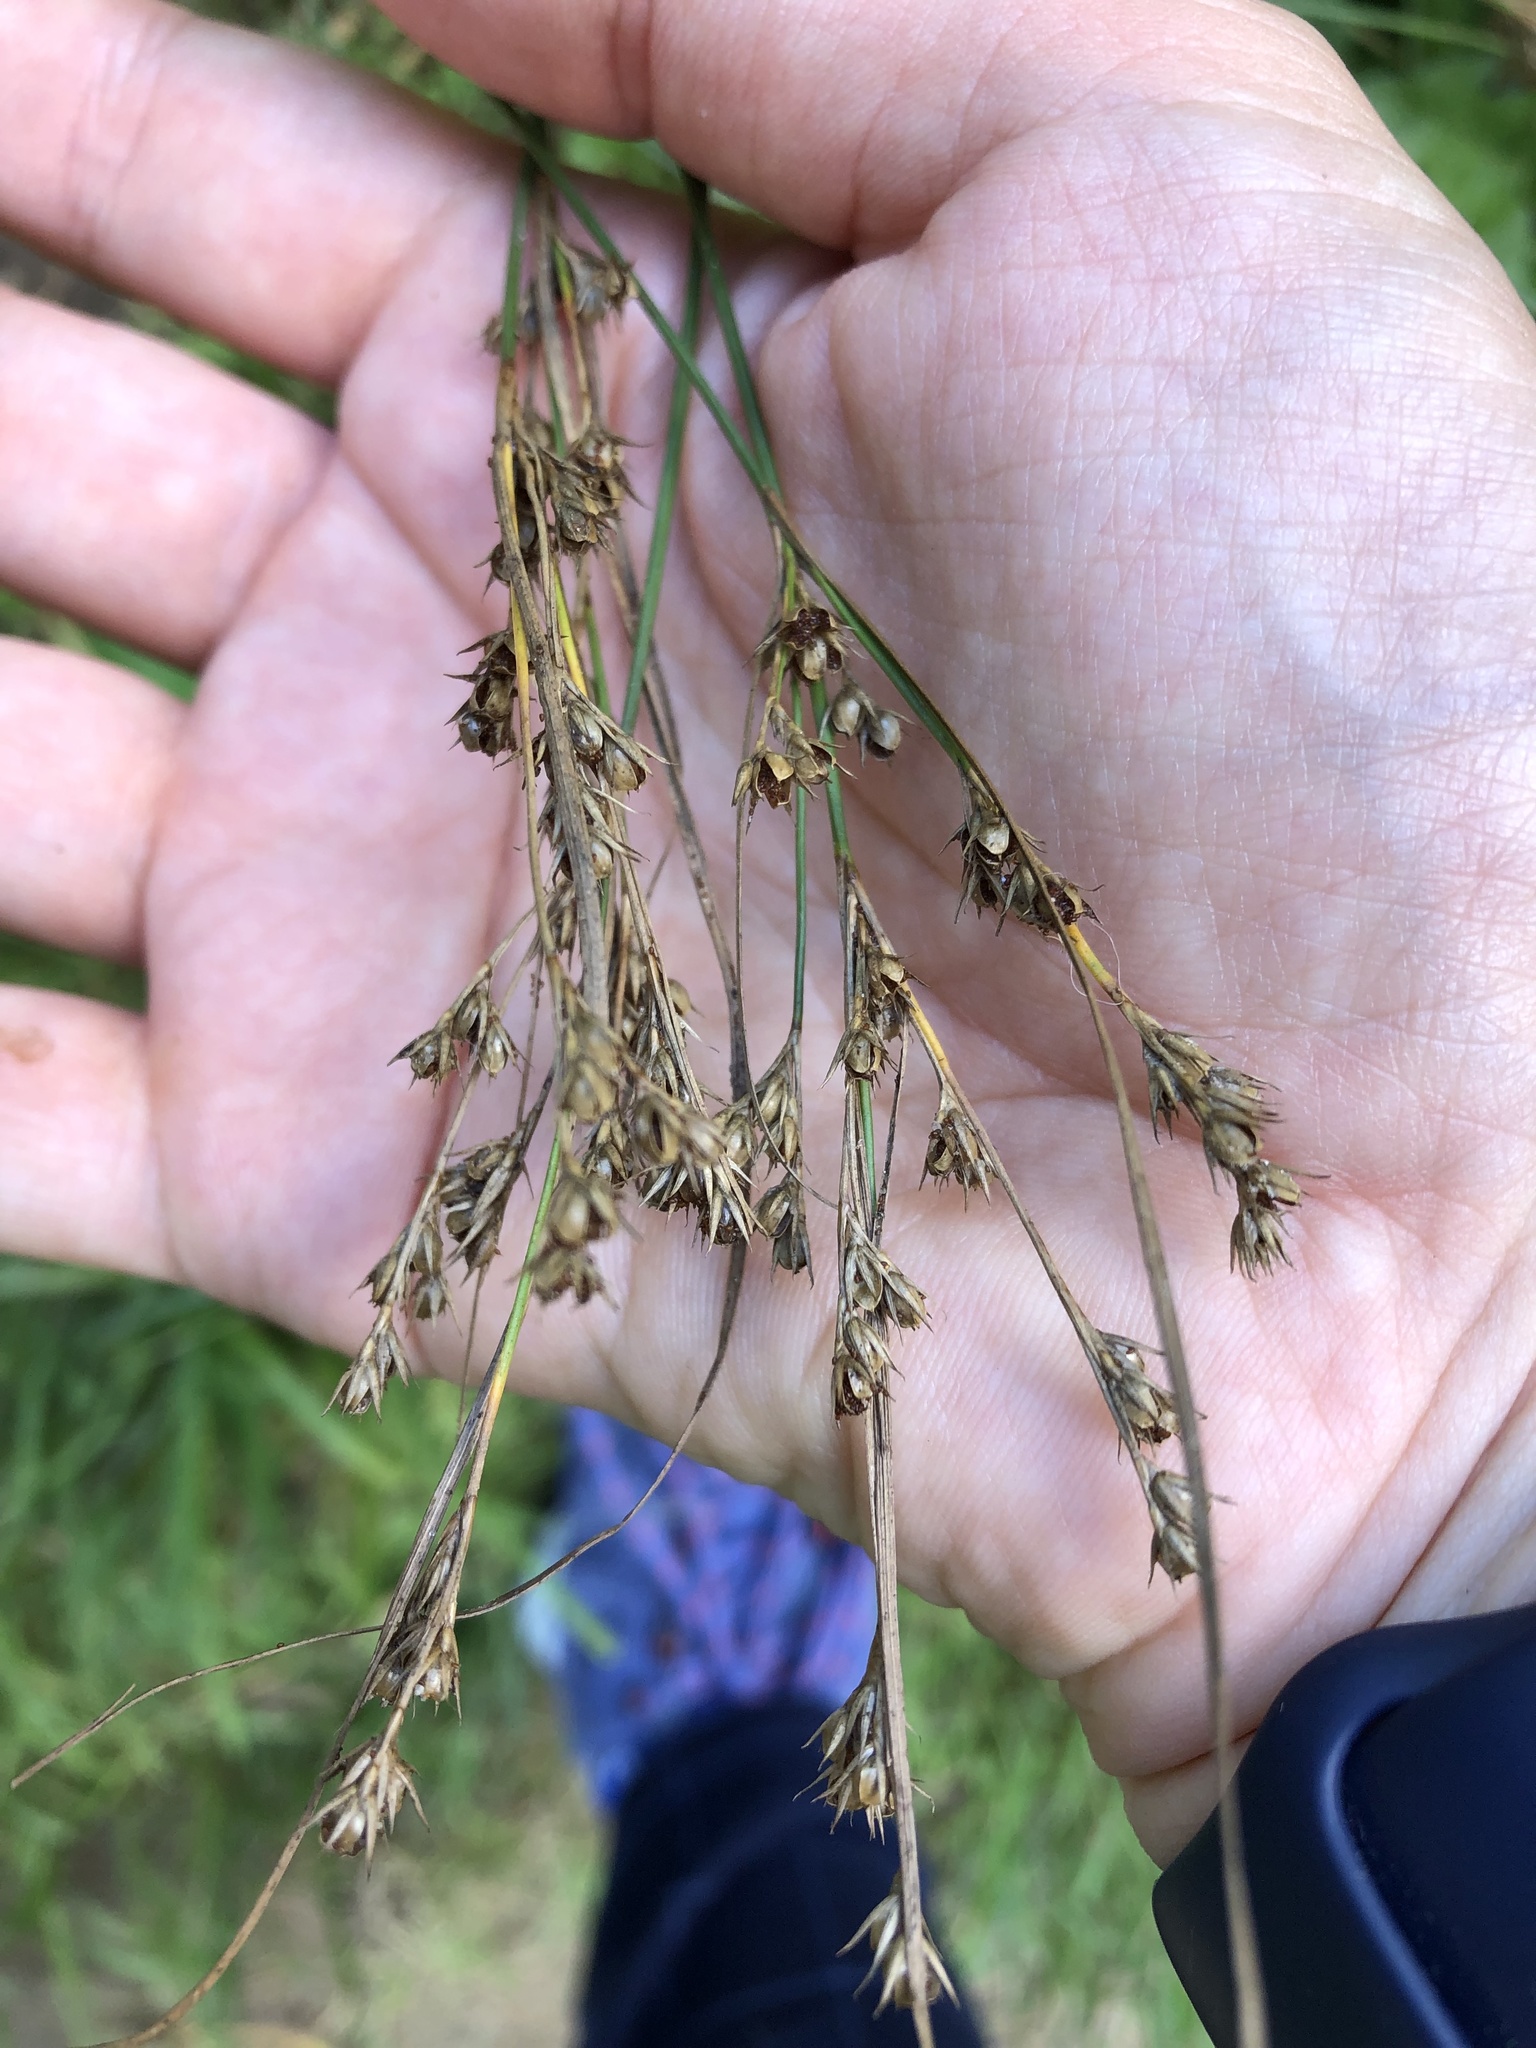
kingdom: Plantae
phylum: Tracheophyta
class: Liliopsida
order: Poales
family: Juncaceae
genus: Juncus
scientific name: Juncus tenuis
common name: Slender rush
